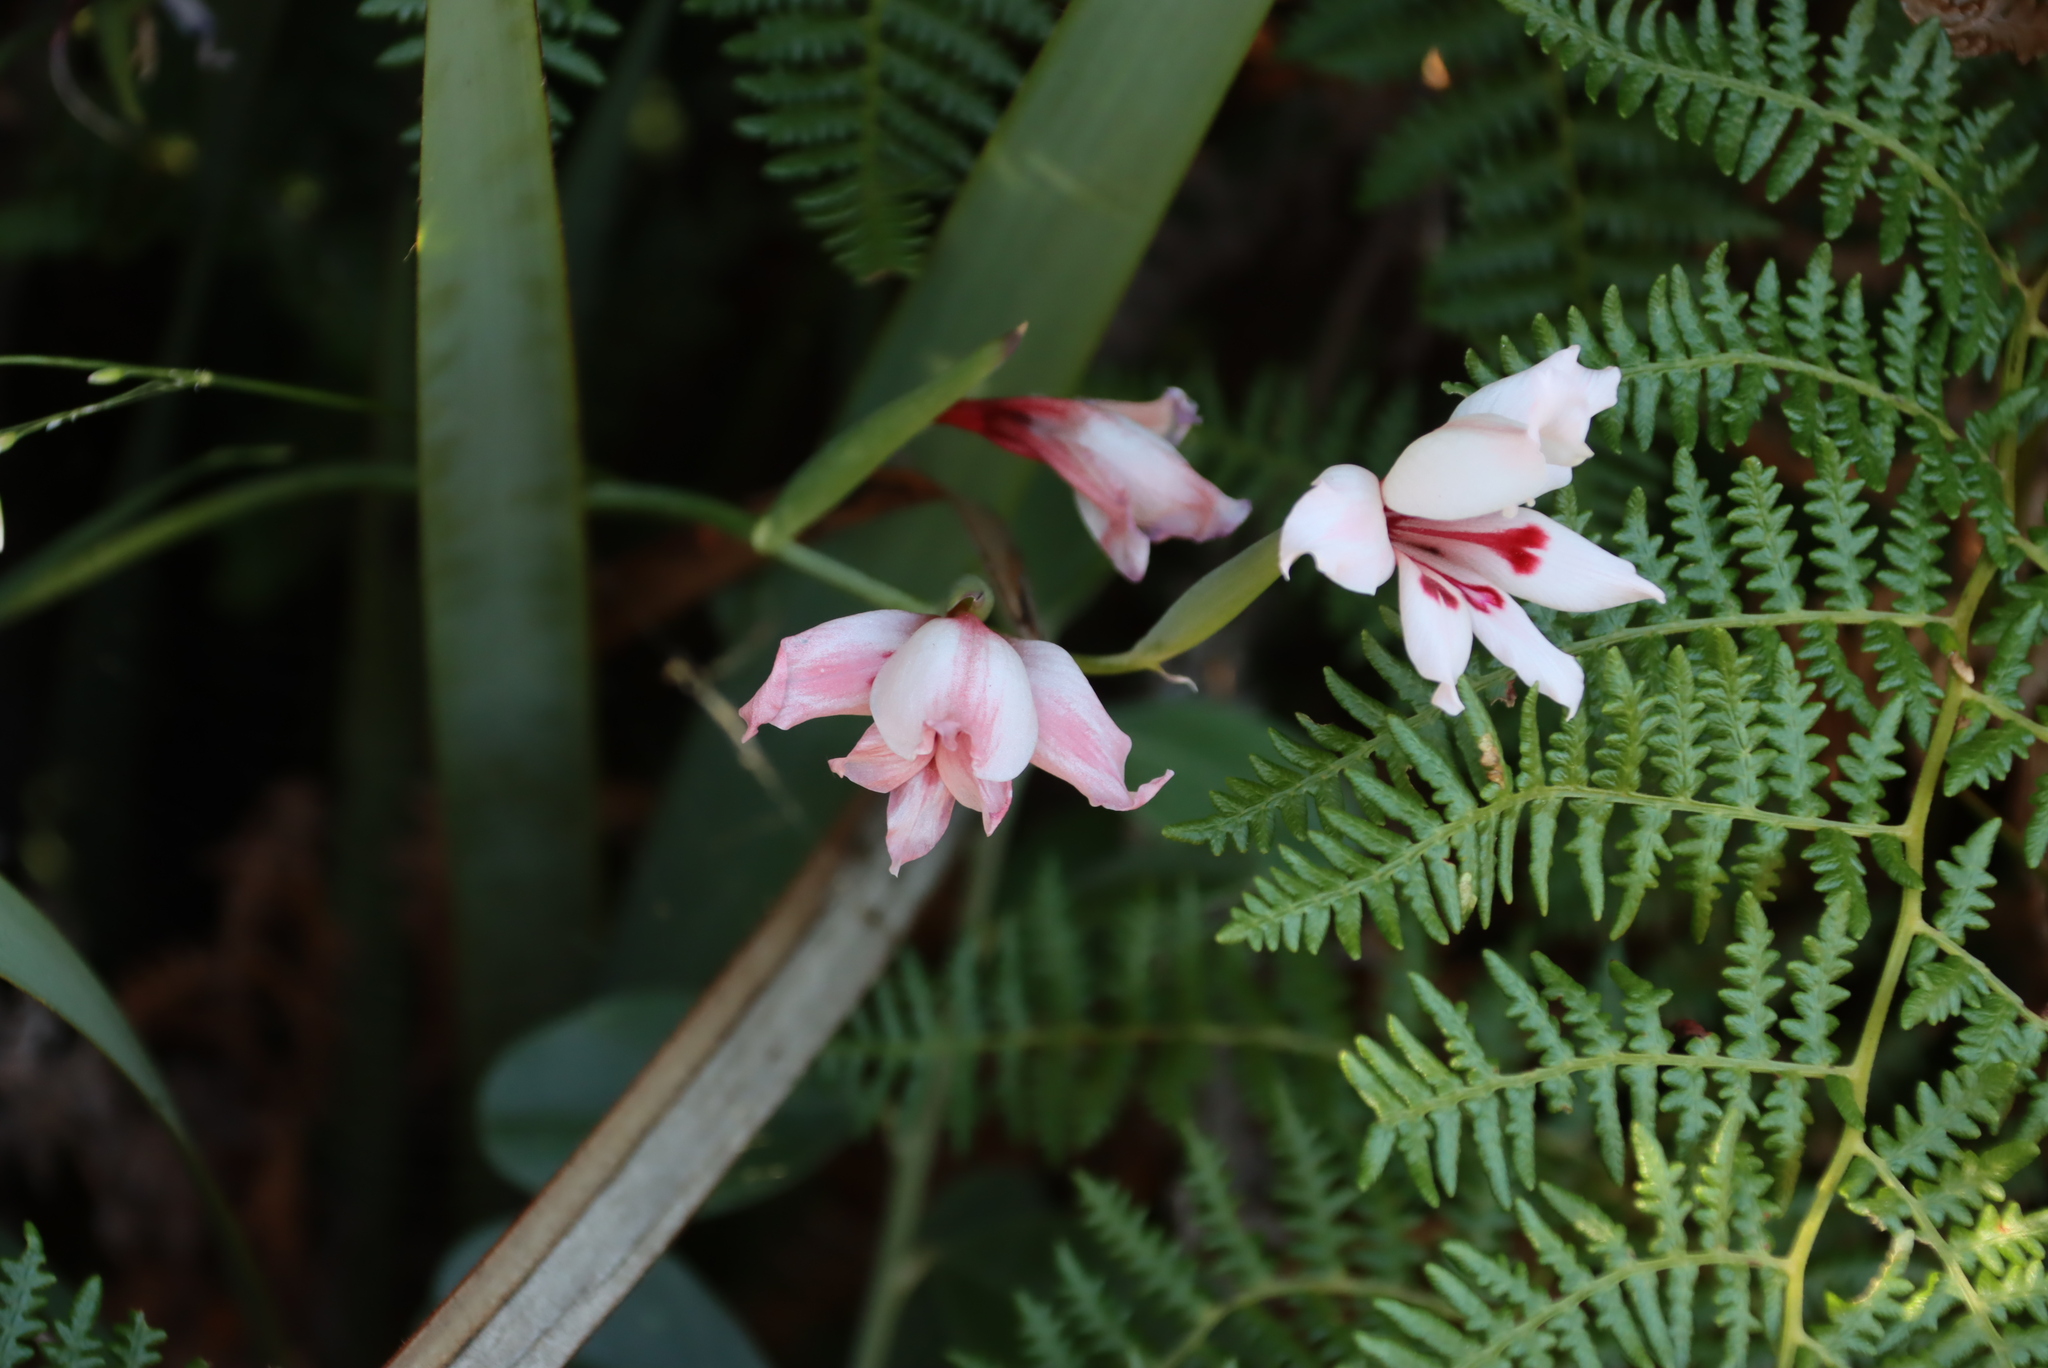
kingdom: Plantae
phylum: Tracheophyta
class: Liliopsida
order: Asparagales
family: Iridaceae
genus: Gladiolus
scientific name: Gladiolus carneus
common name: Painted-lady
